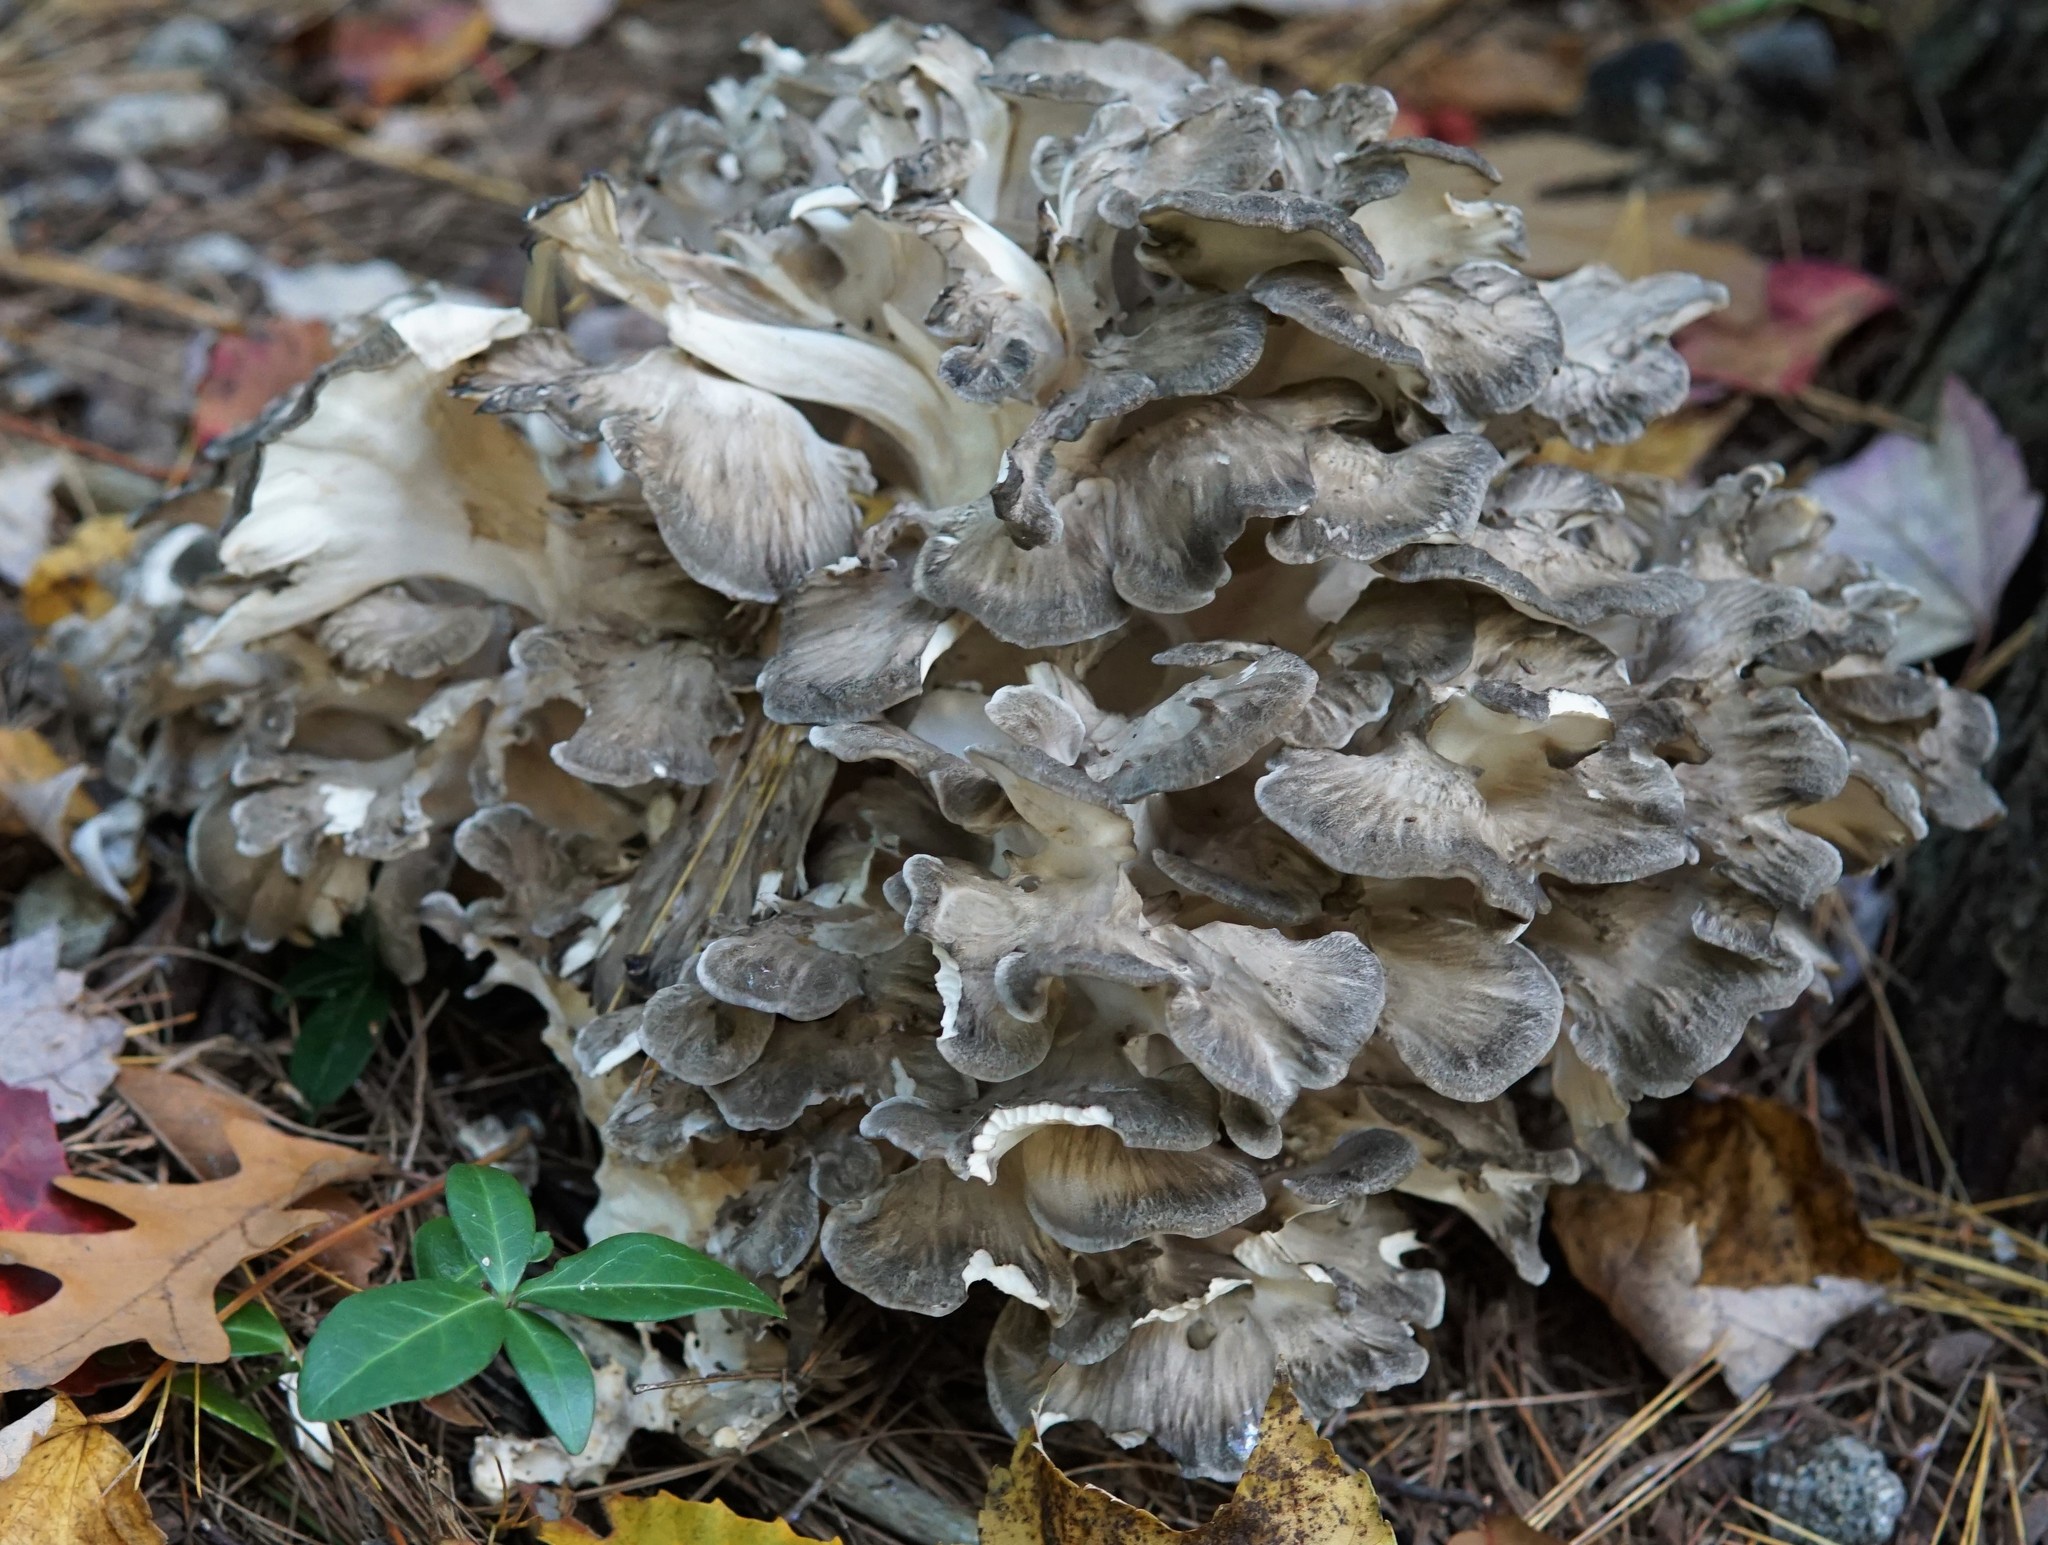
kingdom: Fungi
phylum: Basidiomycota
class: Agaricomycetes
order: Polyporales
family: Grifolaceae
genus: Grifola
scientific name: Grifola frondosa
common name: Hen of the woods
